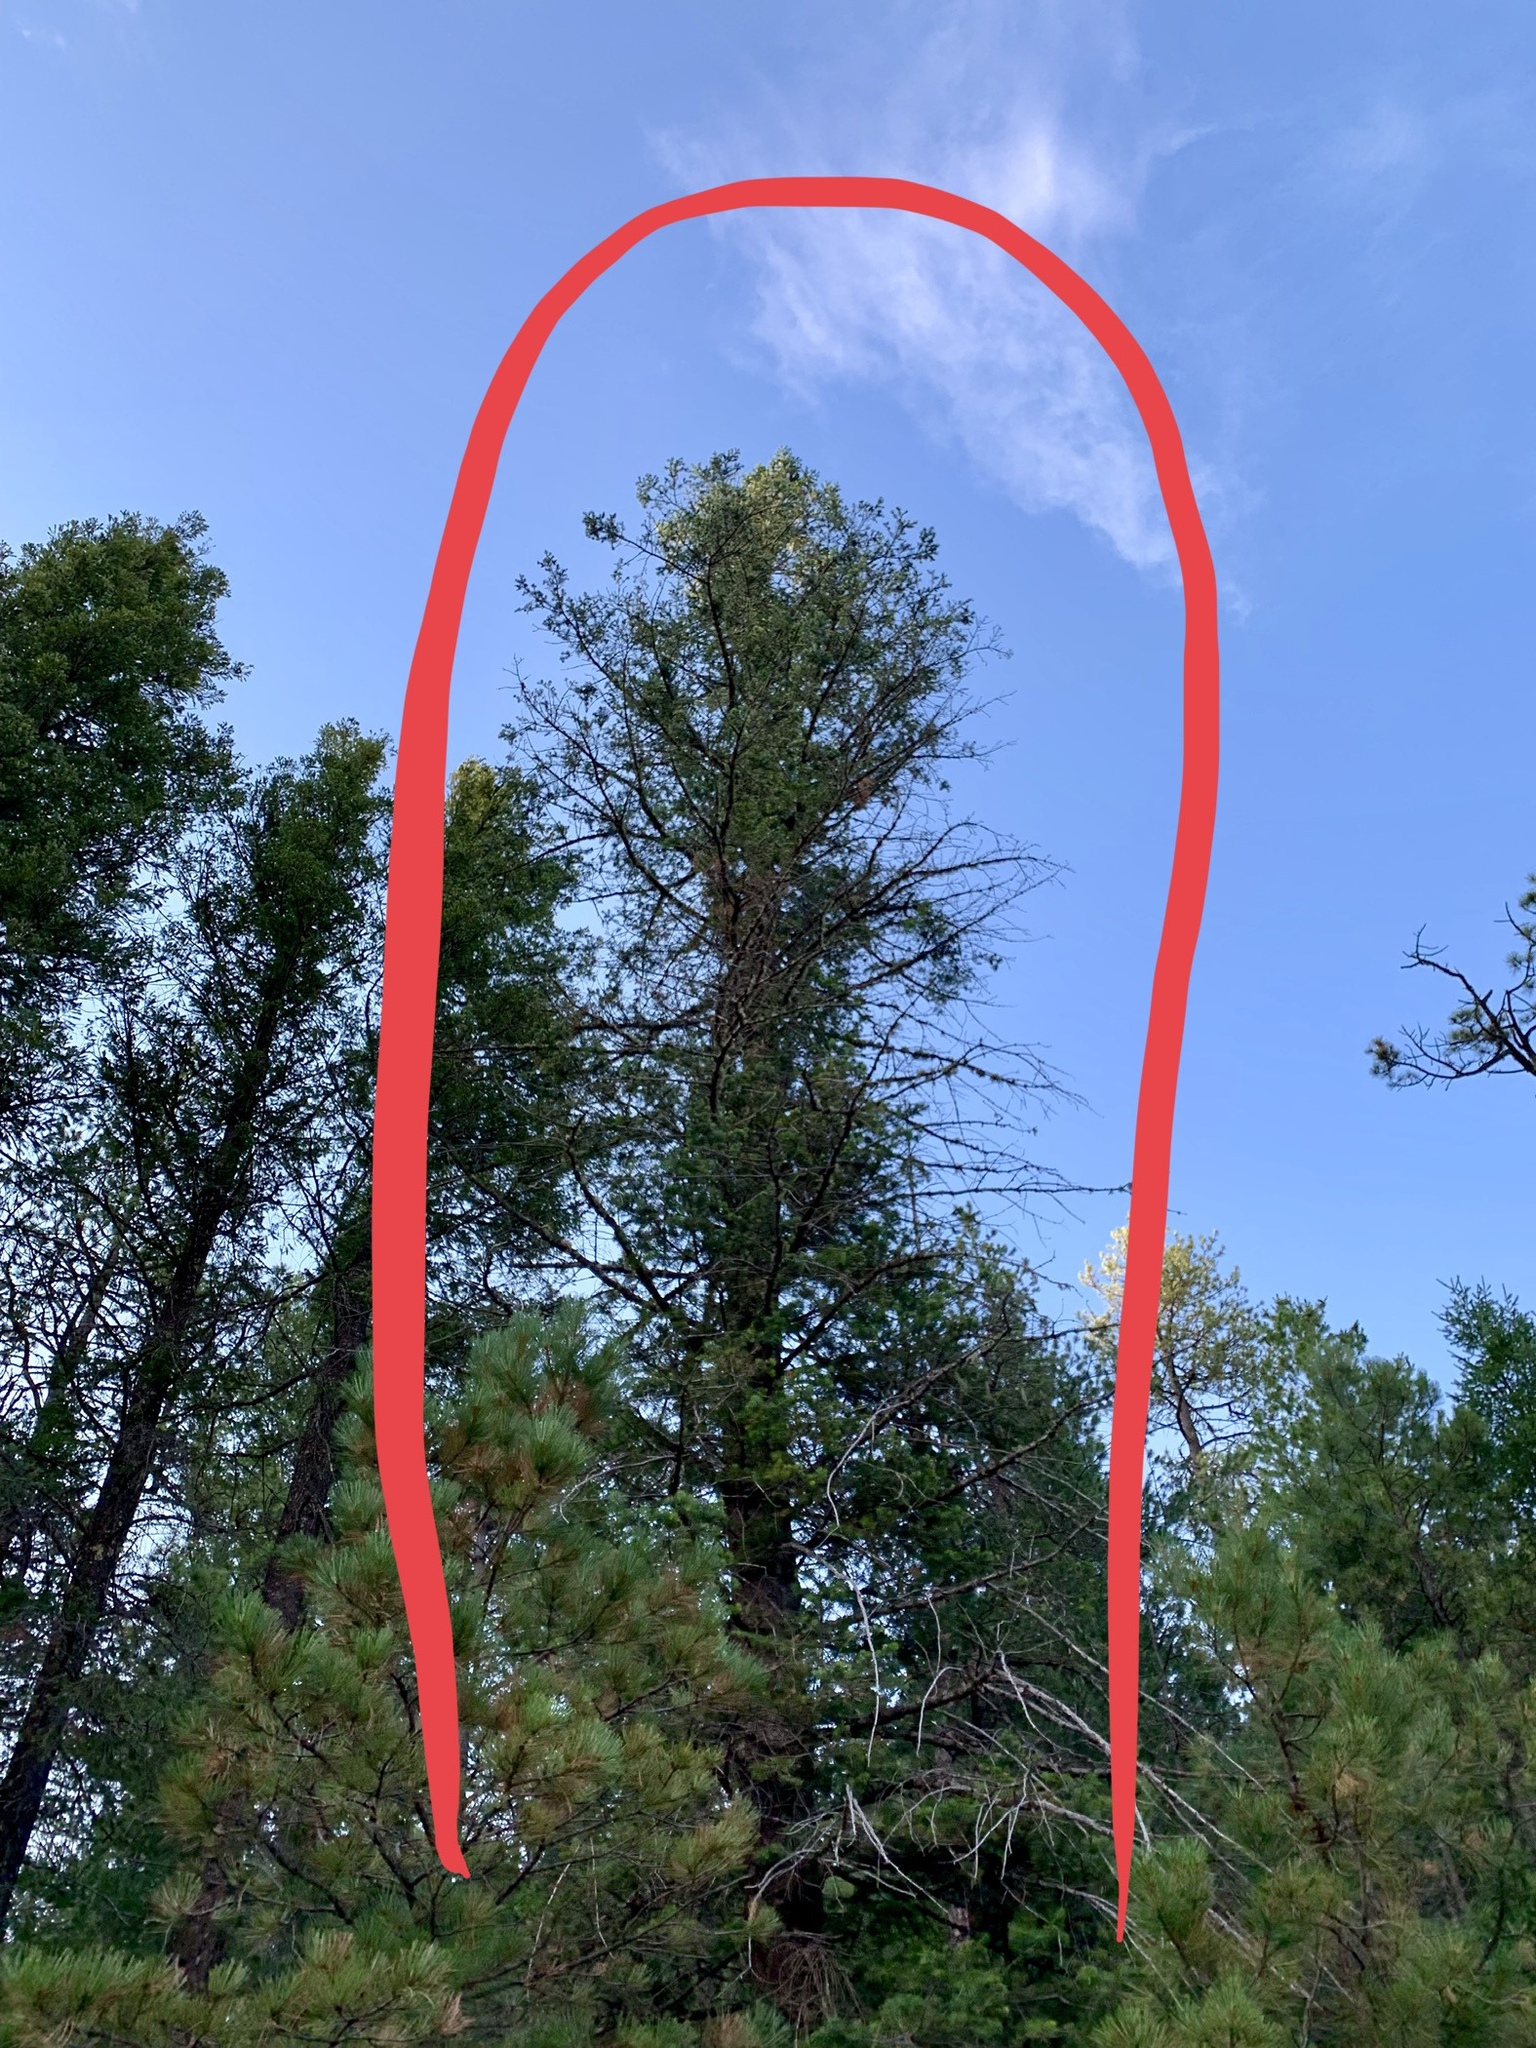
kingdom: Plantae
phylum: Tracheophyta
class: Pinopsida
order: Pinales
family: Pinaceae
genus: Pseudotsuga
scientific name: Pseudotsuga menziesii
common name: Douglas fir
